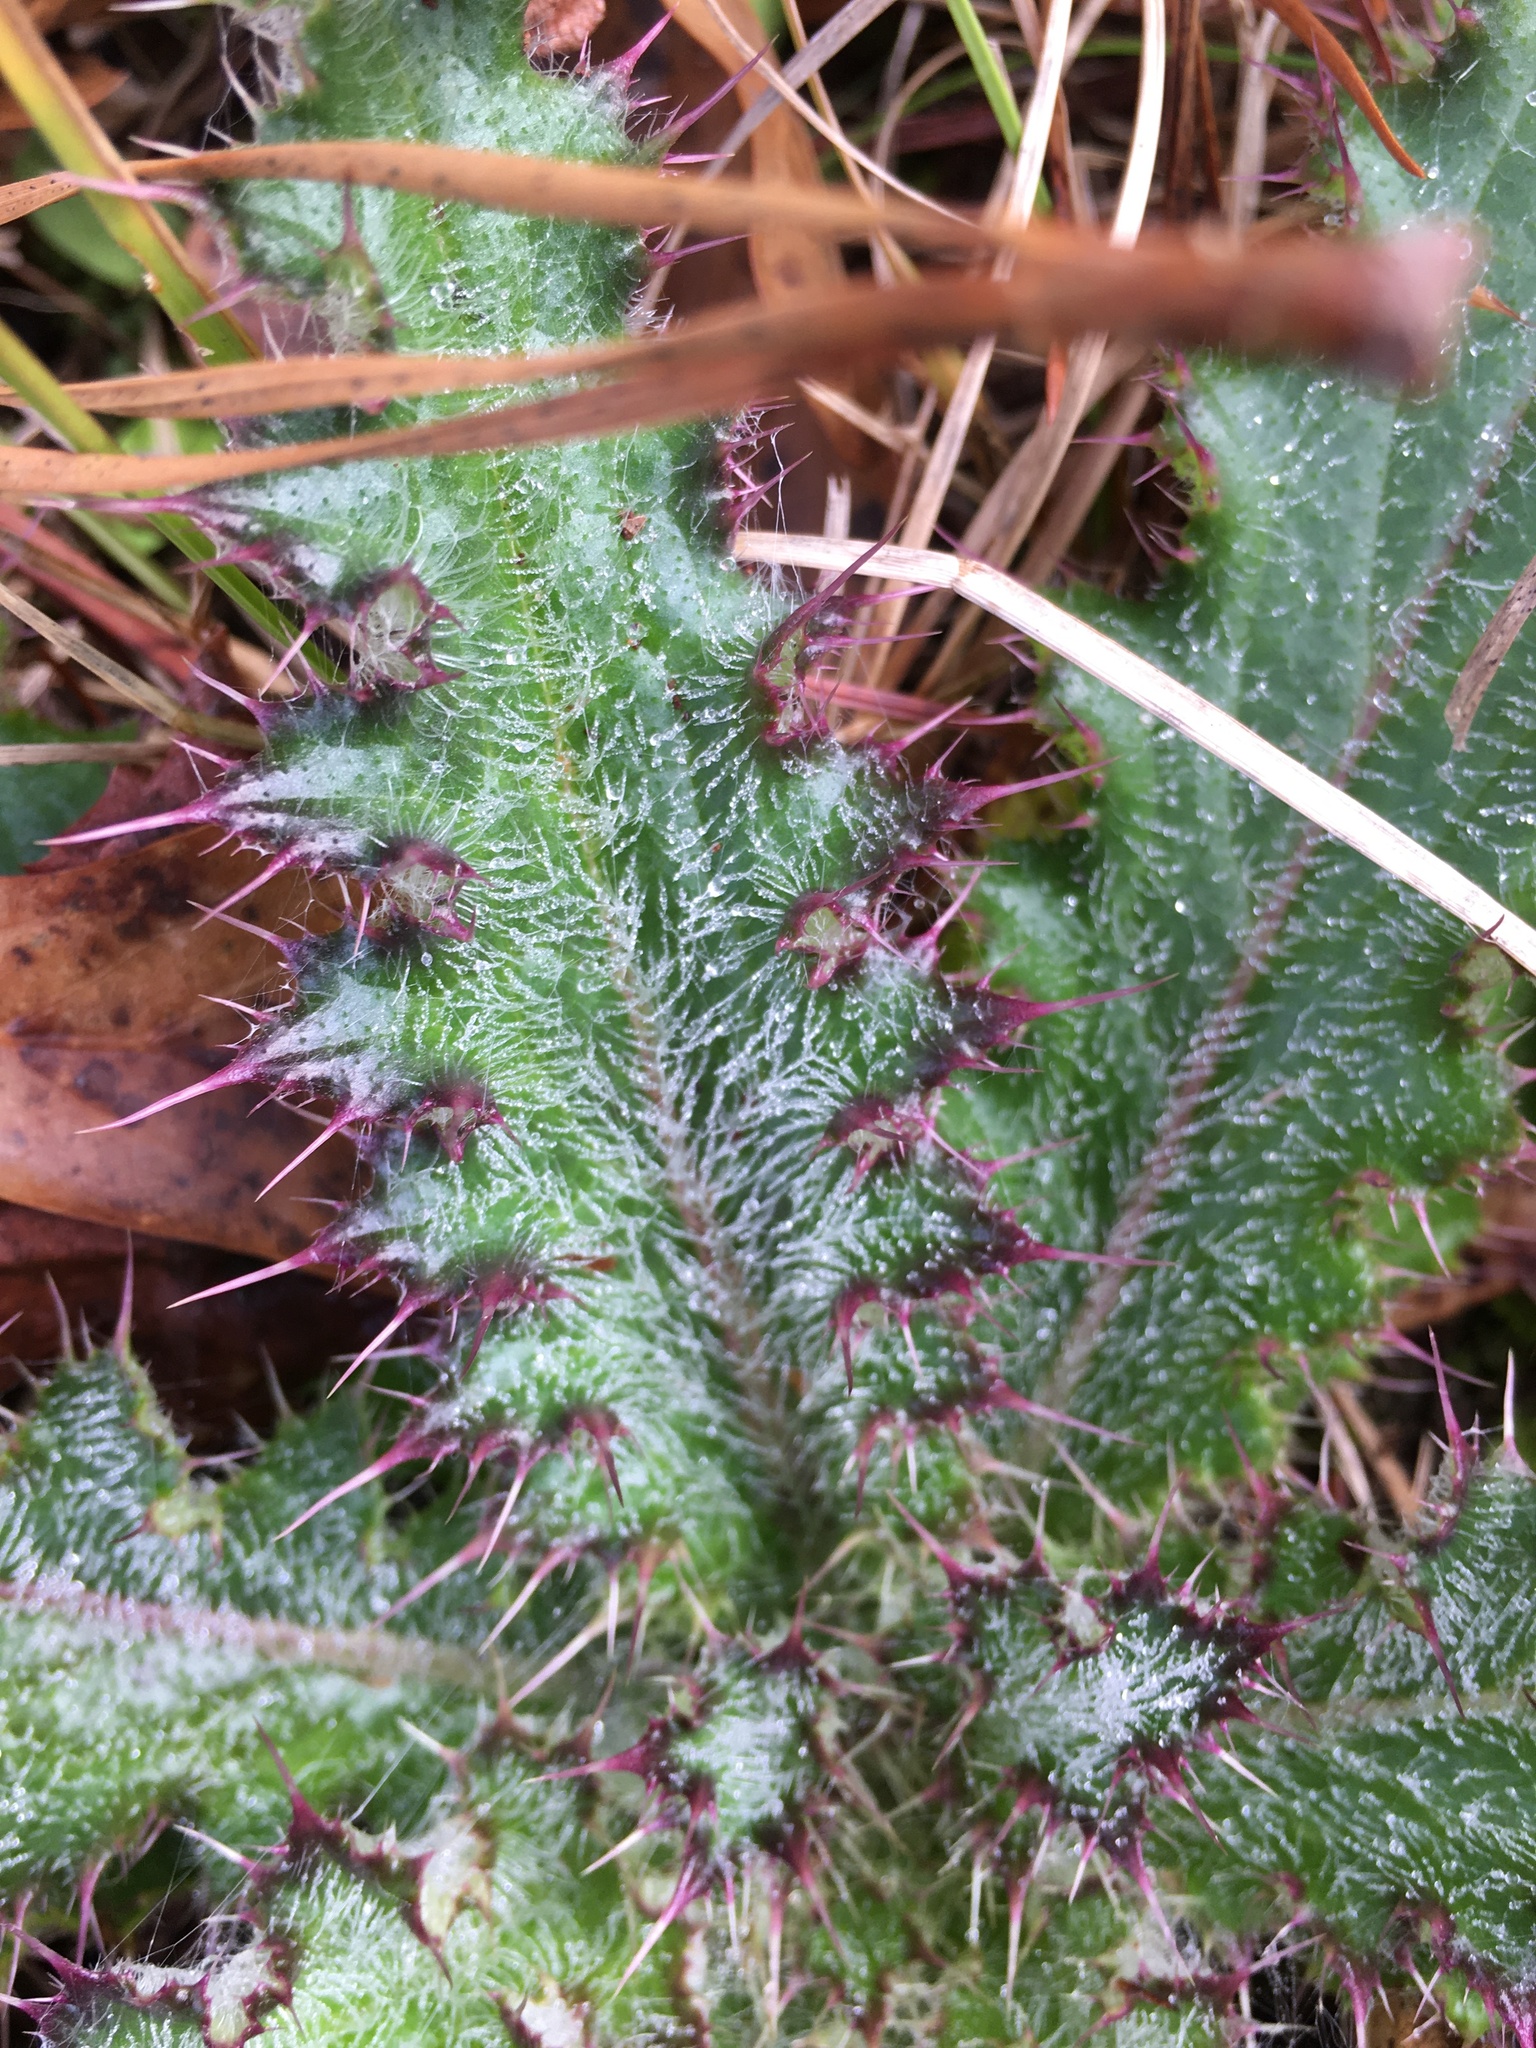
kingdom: Plantae
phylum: Tracheophyta
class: Magnoliopsida
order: Asterales
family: Asteraceae
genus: Cirsium
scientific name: Cirsium horridulum
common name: Bristly thistle
